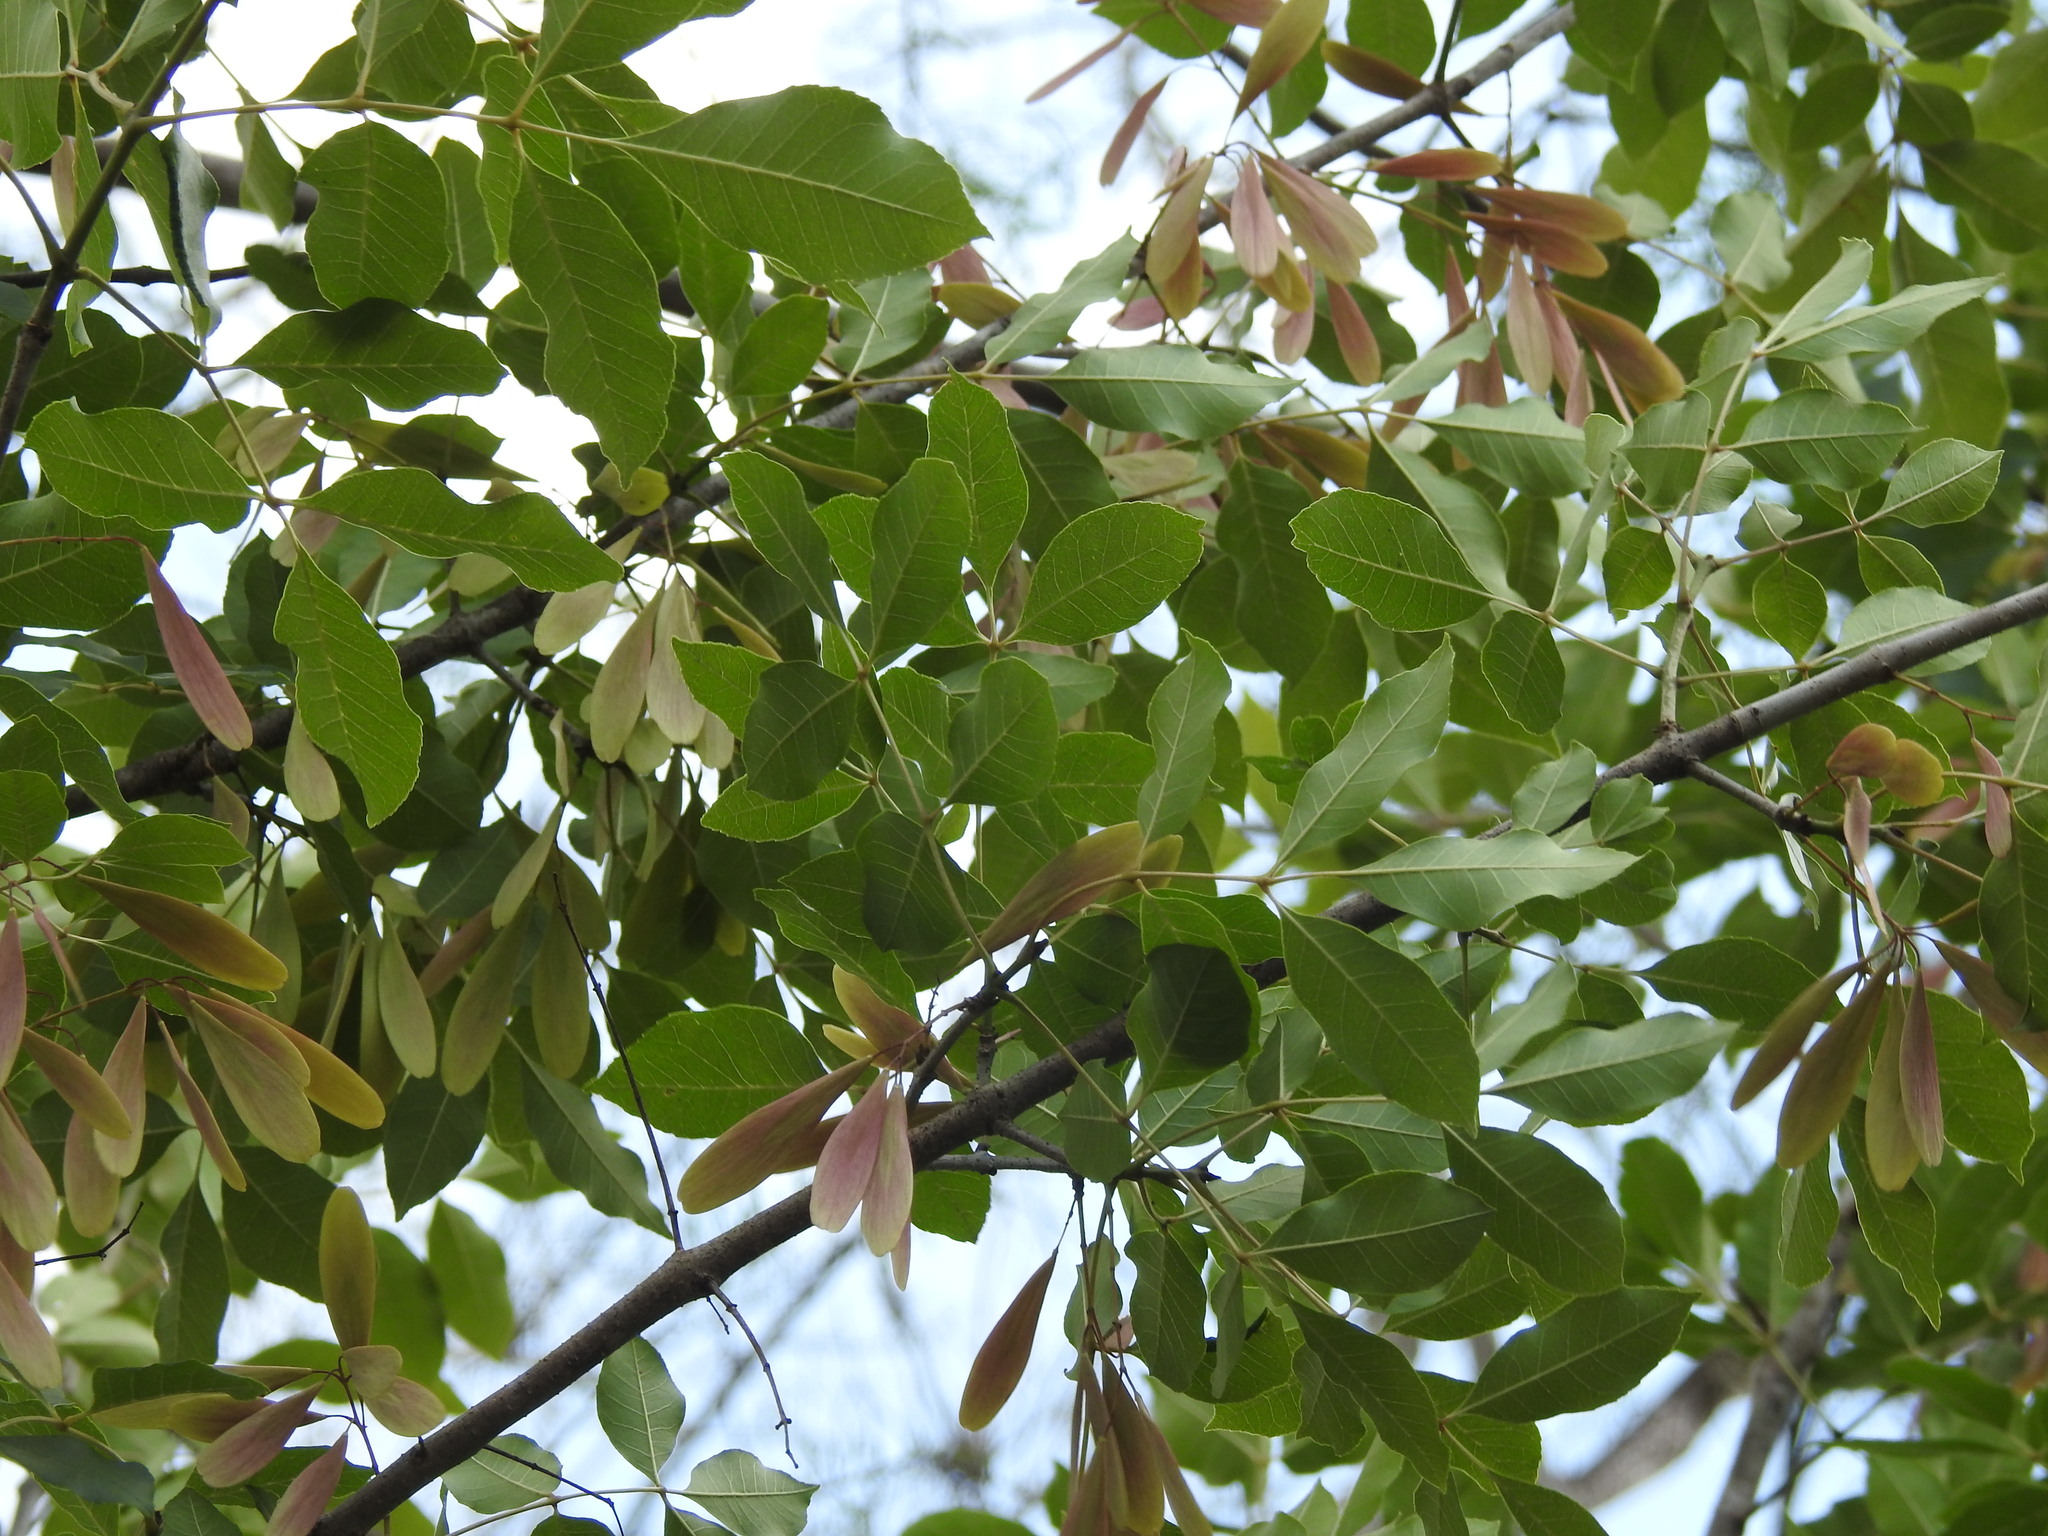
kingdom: Plantae
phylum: Tracheophyta
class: Magnoliopsida
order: Lamiales
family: Oleaceae
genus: Fraxinus
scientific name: Fraxinus caroliniana
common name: Carolina ash
